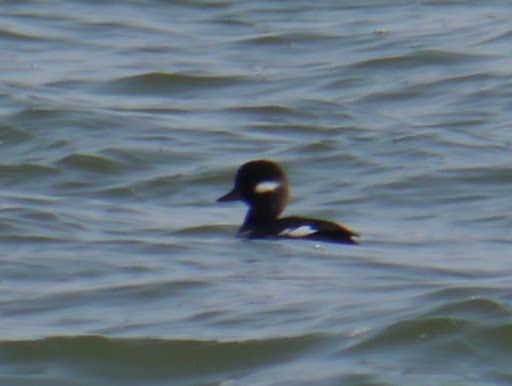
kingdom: Animalia
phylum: Chordata
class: Aves
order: Anseriformes
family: Anatidae
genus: Bucephala
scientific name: Bucephala albeola
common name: Bufflehead
